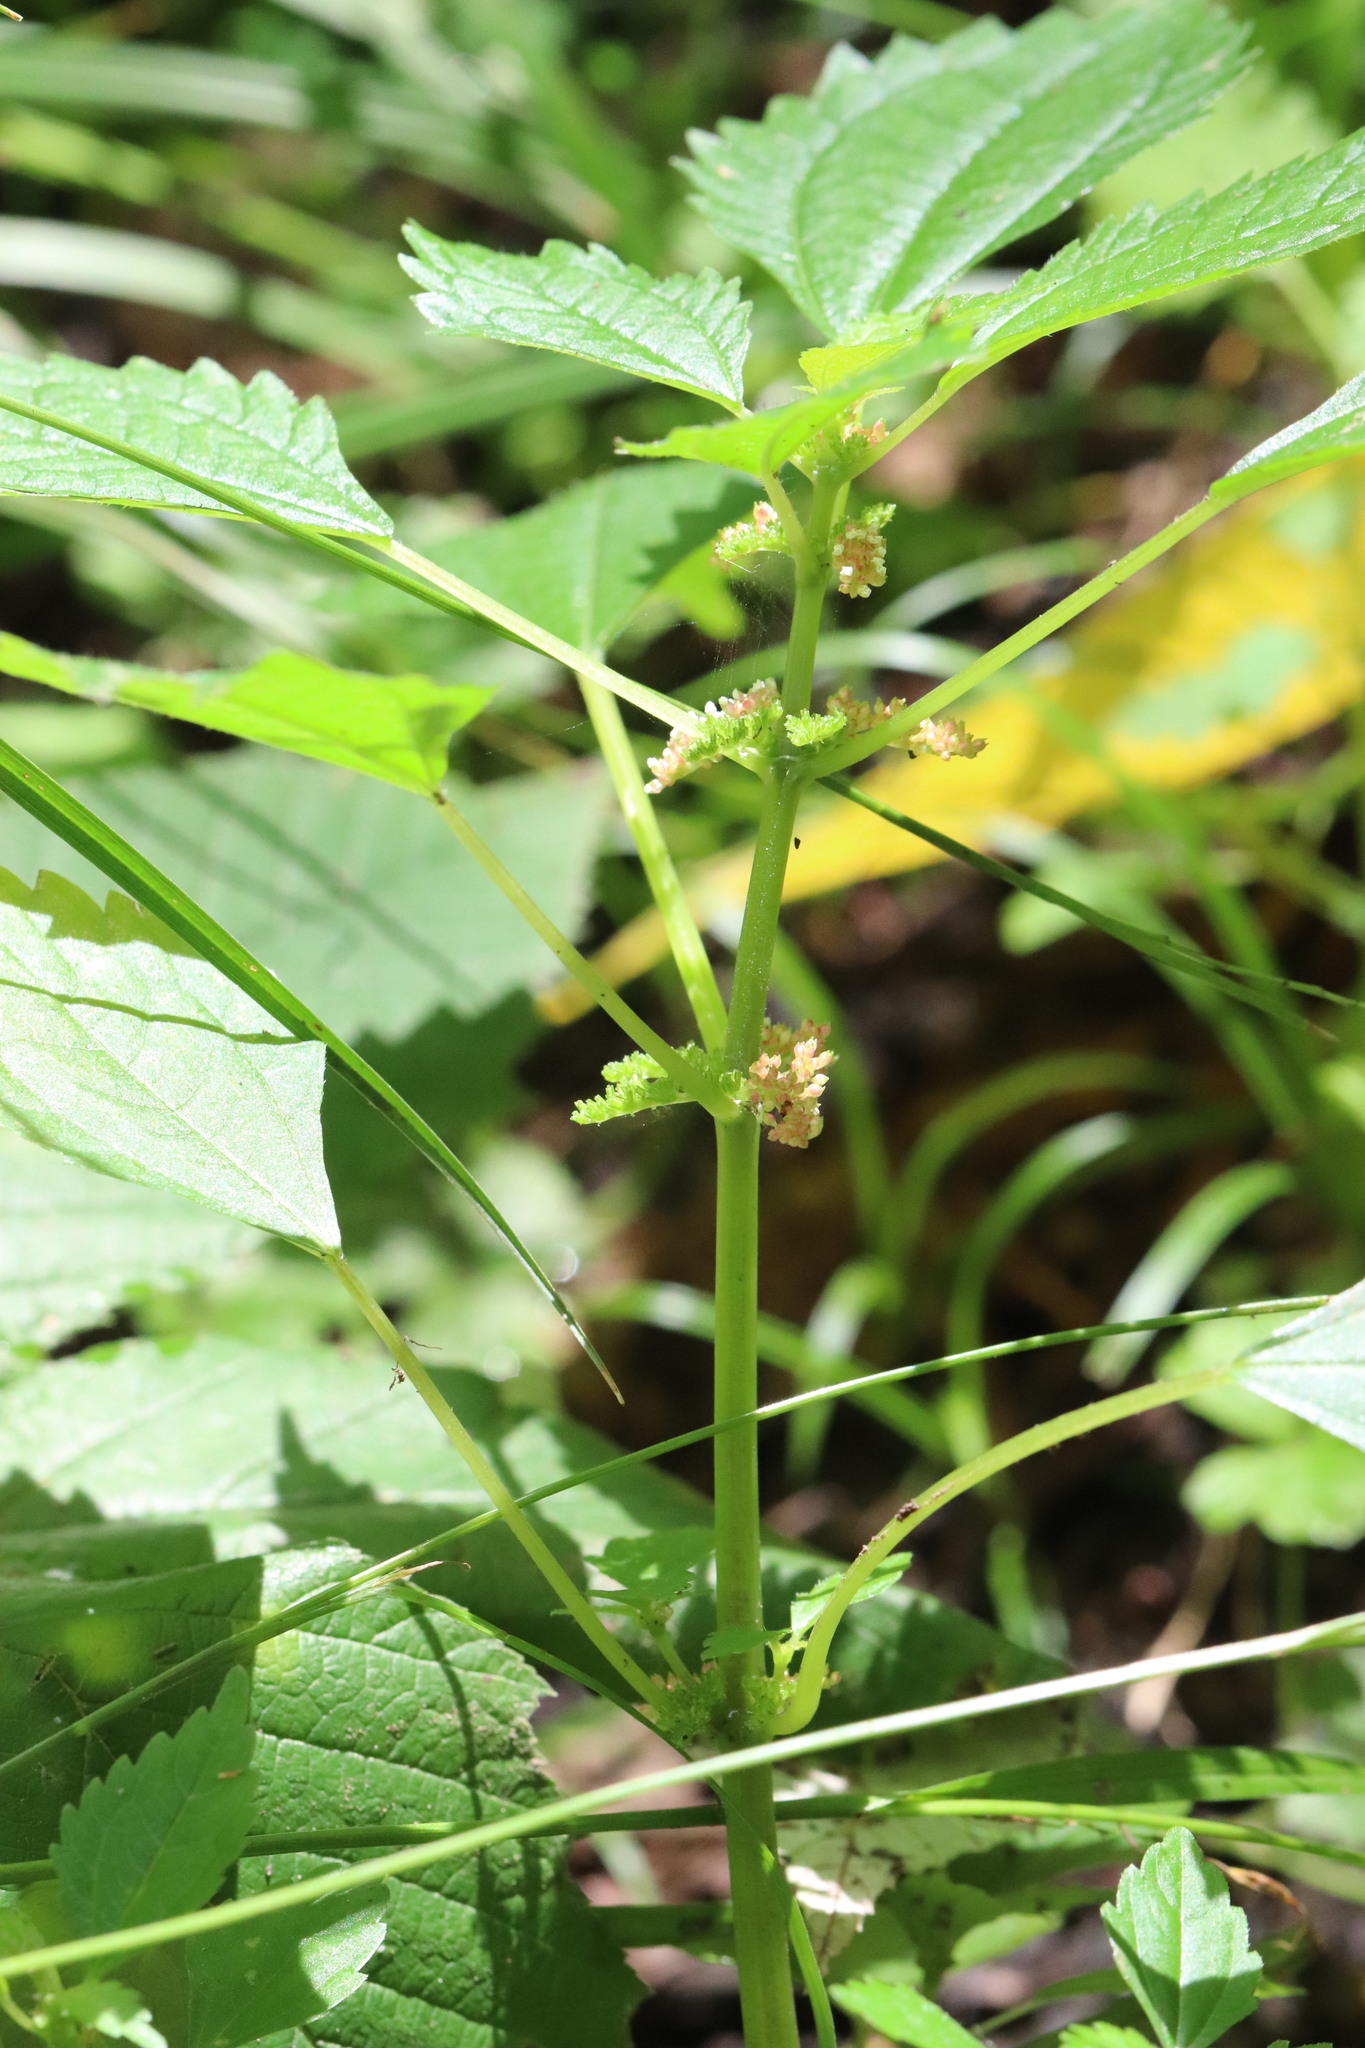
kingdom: Plantae
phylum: Tracheophyta
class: Magnoliopsida
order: Rosales
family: Urticaceae
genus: Pilea
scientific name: Pilea pumila
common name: Clearweed
